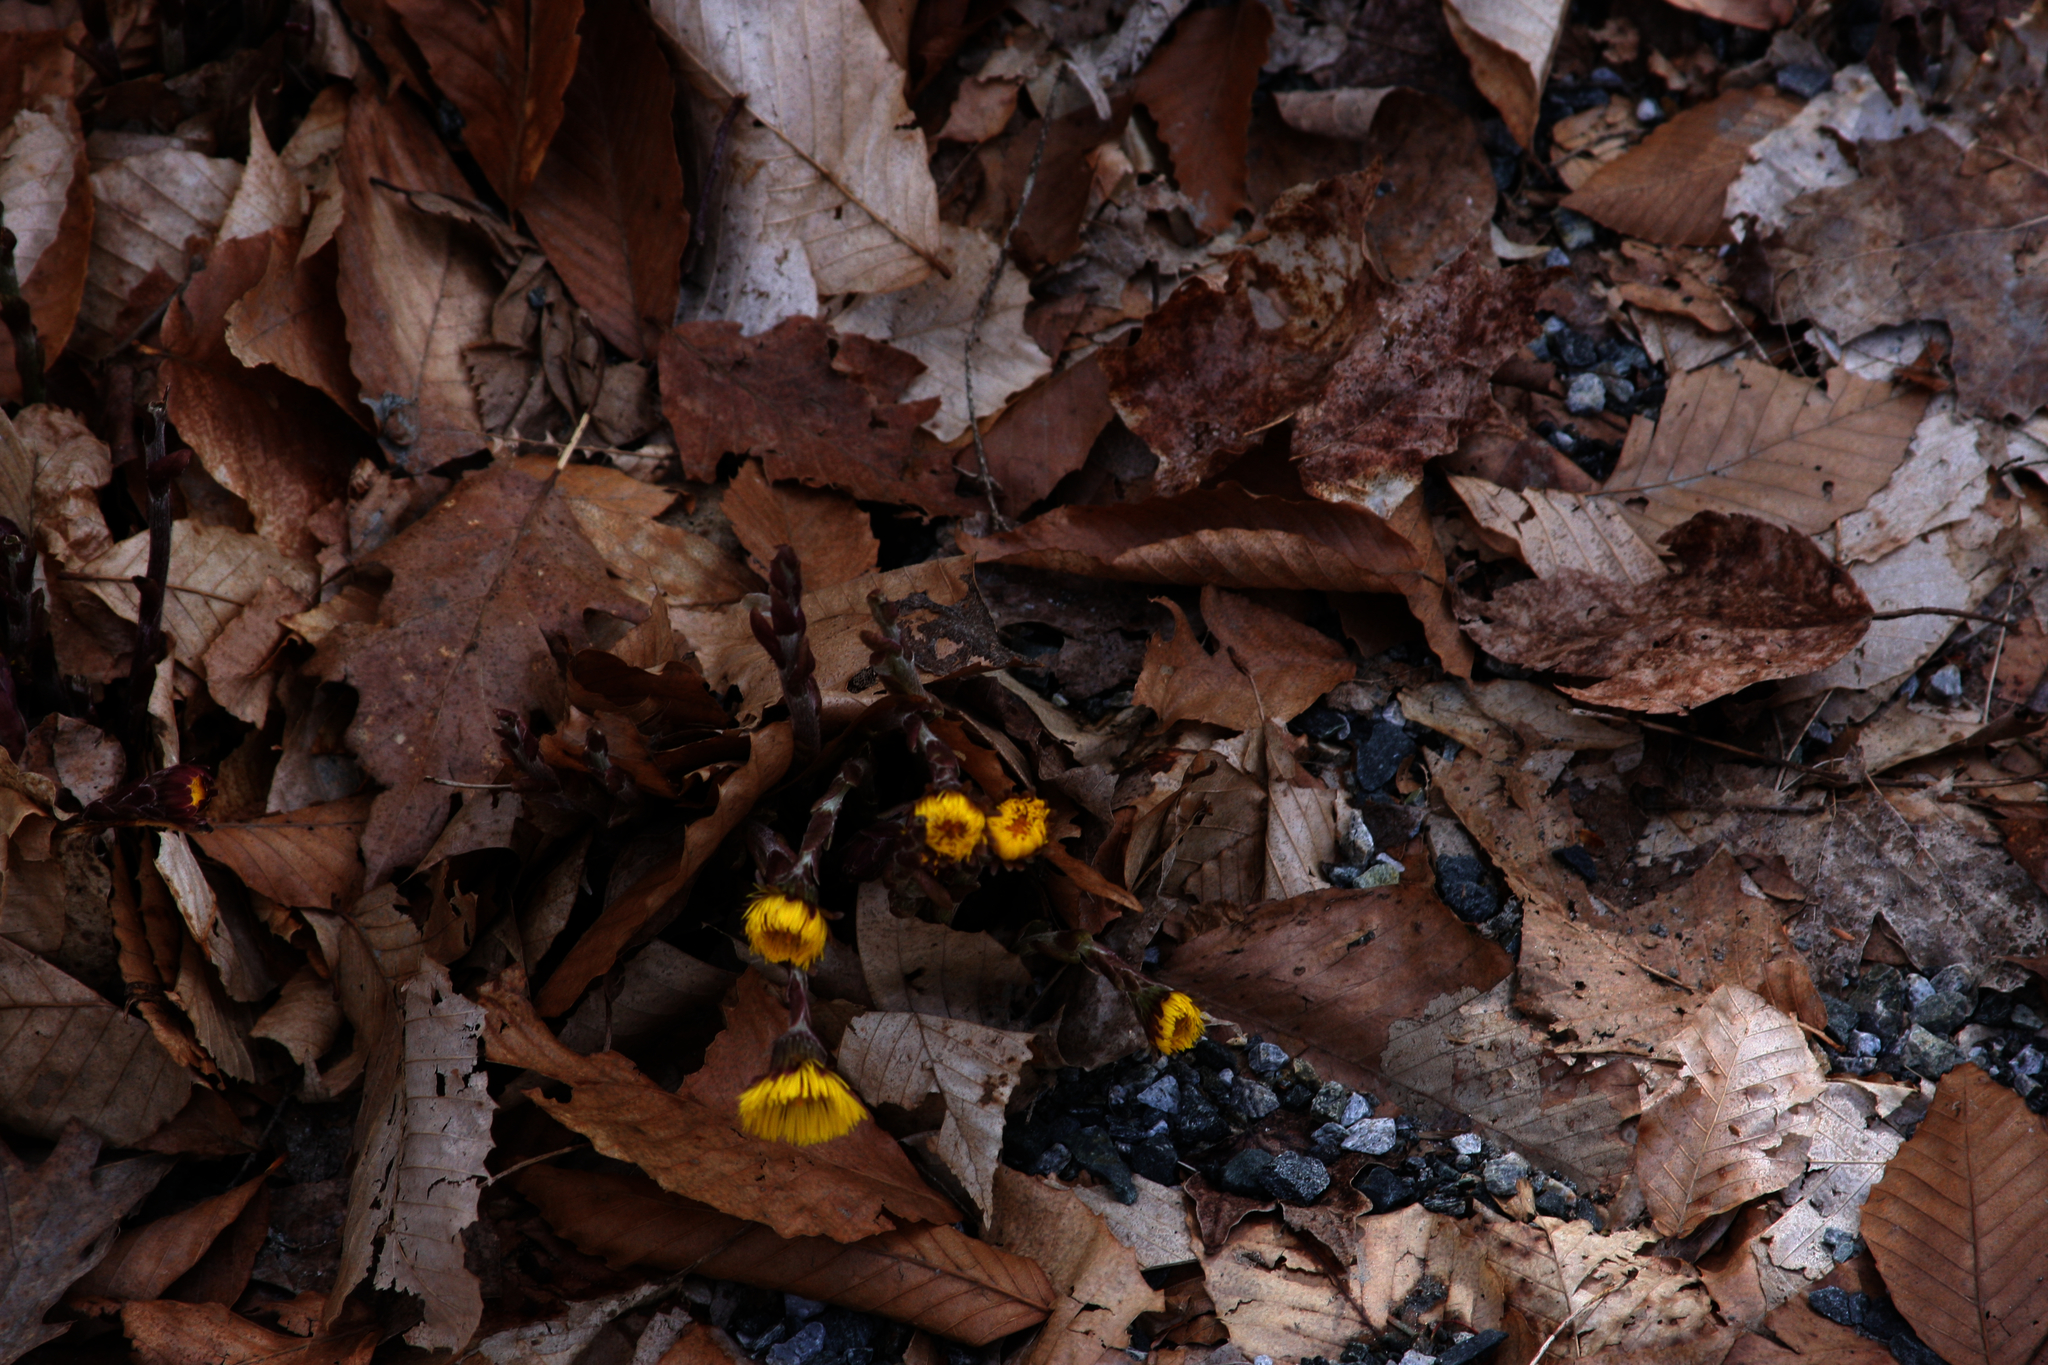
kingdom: Plantae
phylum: Tracheophyta
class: Magnoliopsida
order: Asterales
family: Asteraceae
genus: Tussilago
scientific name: Tussilago farfara
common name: Coltsfoot
